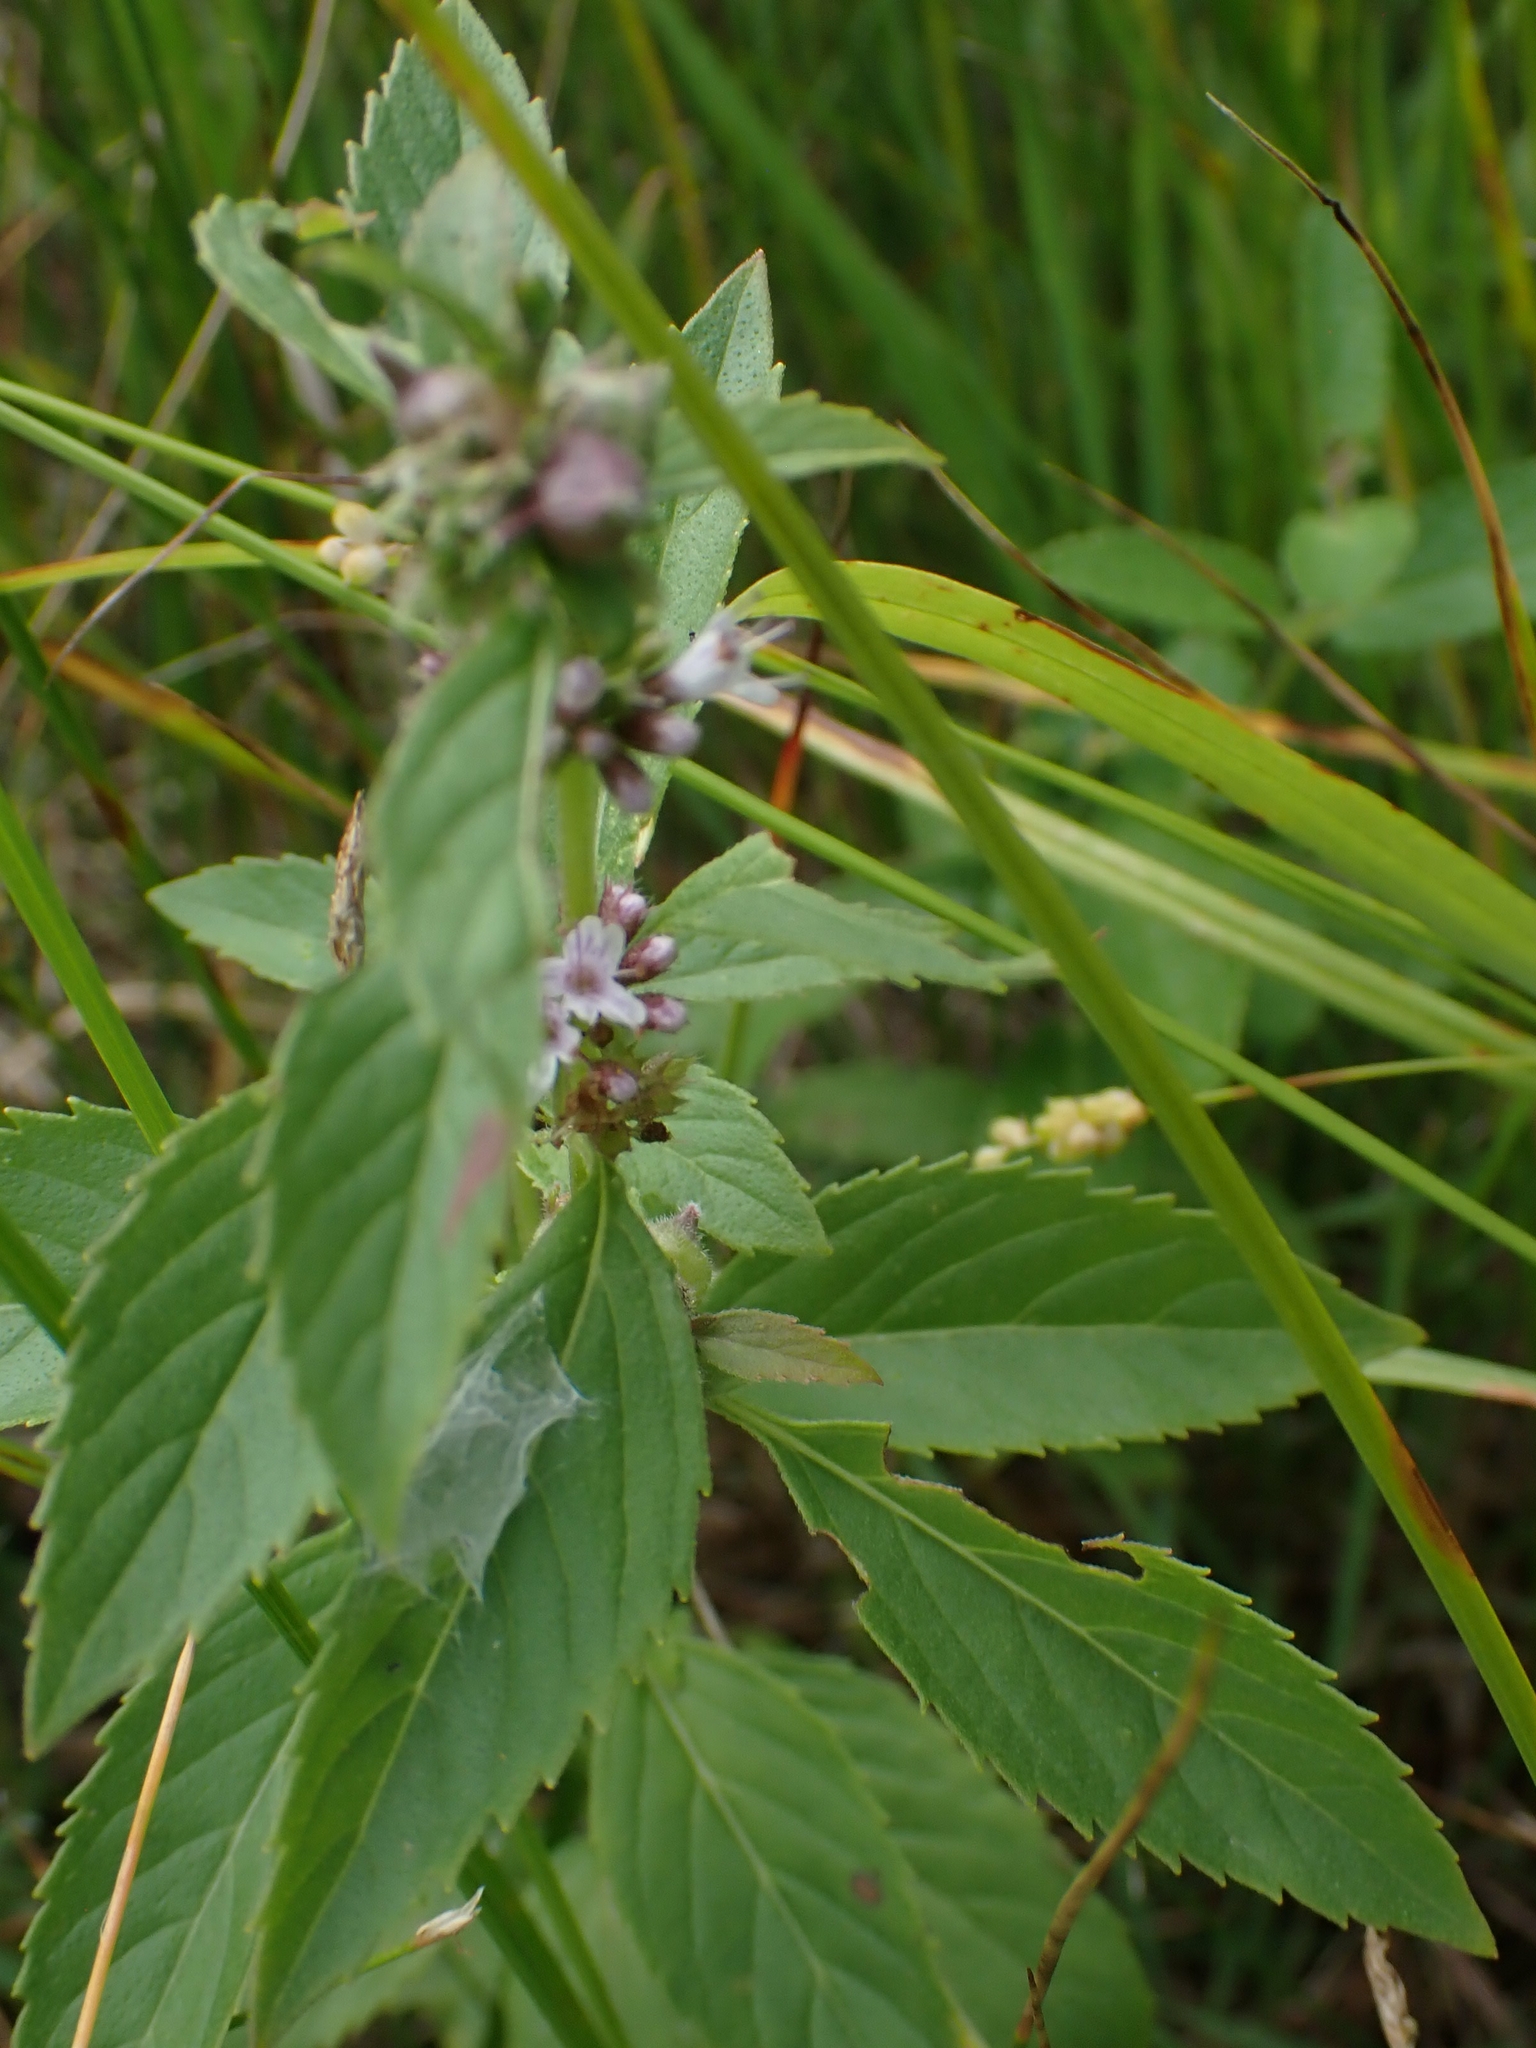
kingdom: Plantae
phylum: Tracheophyta
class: Magnoliopsida
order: Lamiales
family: Lamiaceae
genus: Mentha
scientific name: Mentha canadensis
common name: American corn mint
